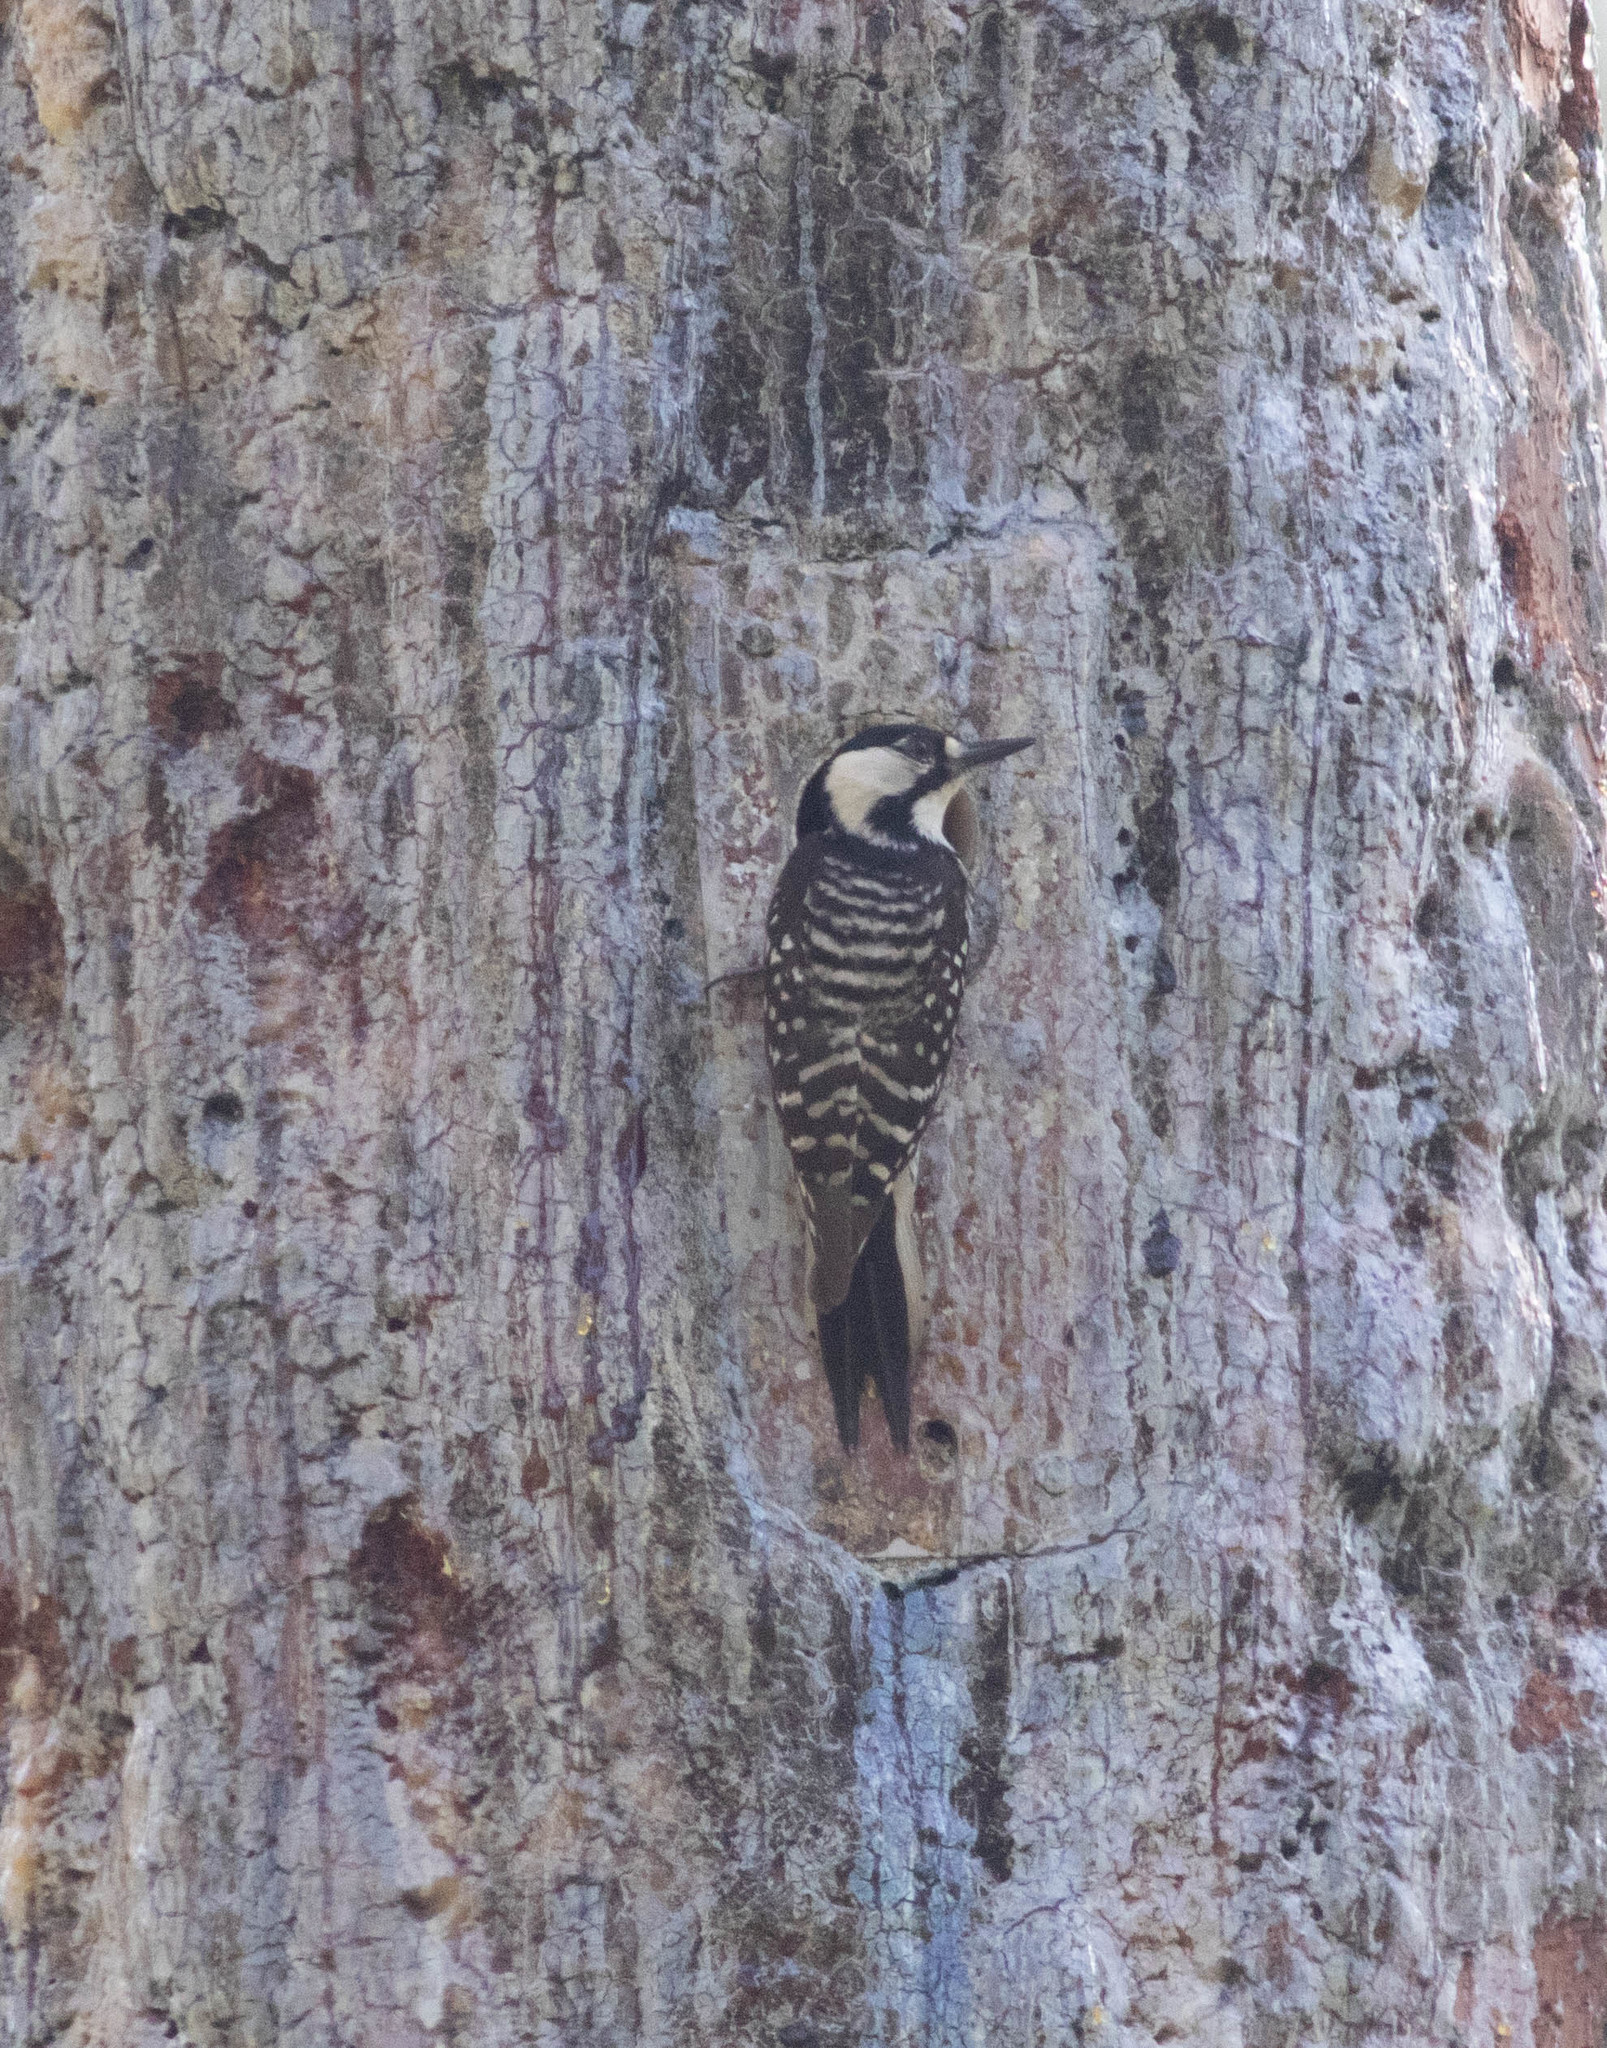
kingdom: Animalia
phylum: Chordata
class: Aves
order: Piciformes
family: Picidae
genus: Leuconotopicus
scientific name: Leuconotopicus borealis
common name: Red-cockaded woodpecker
